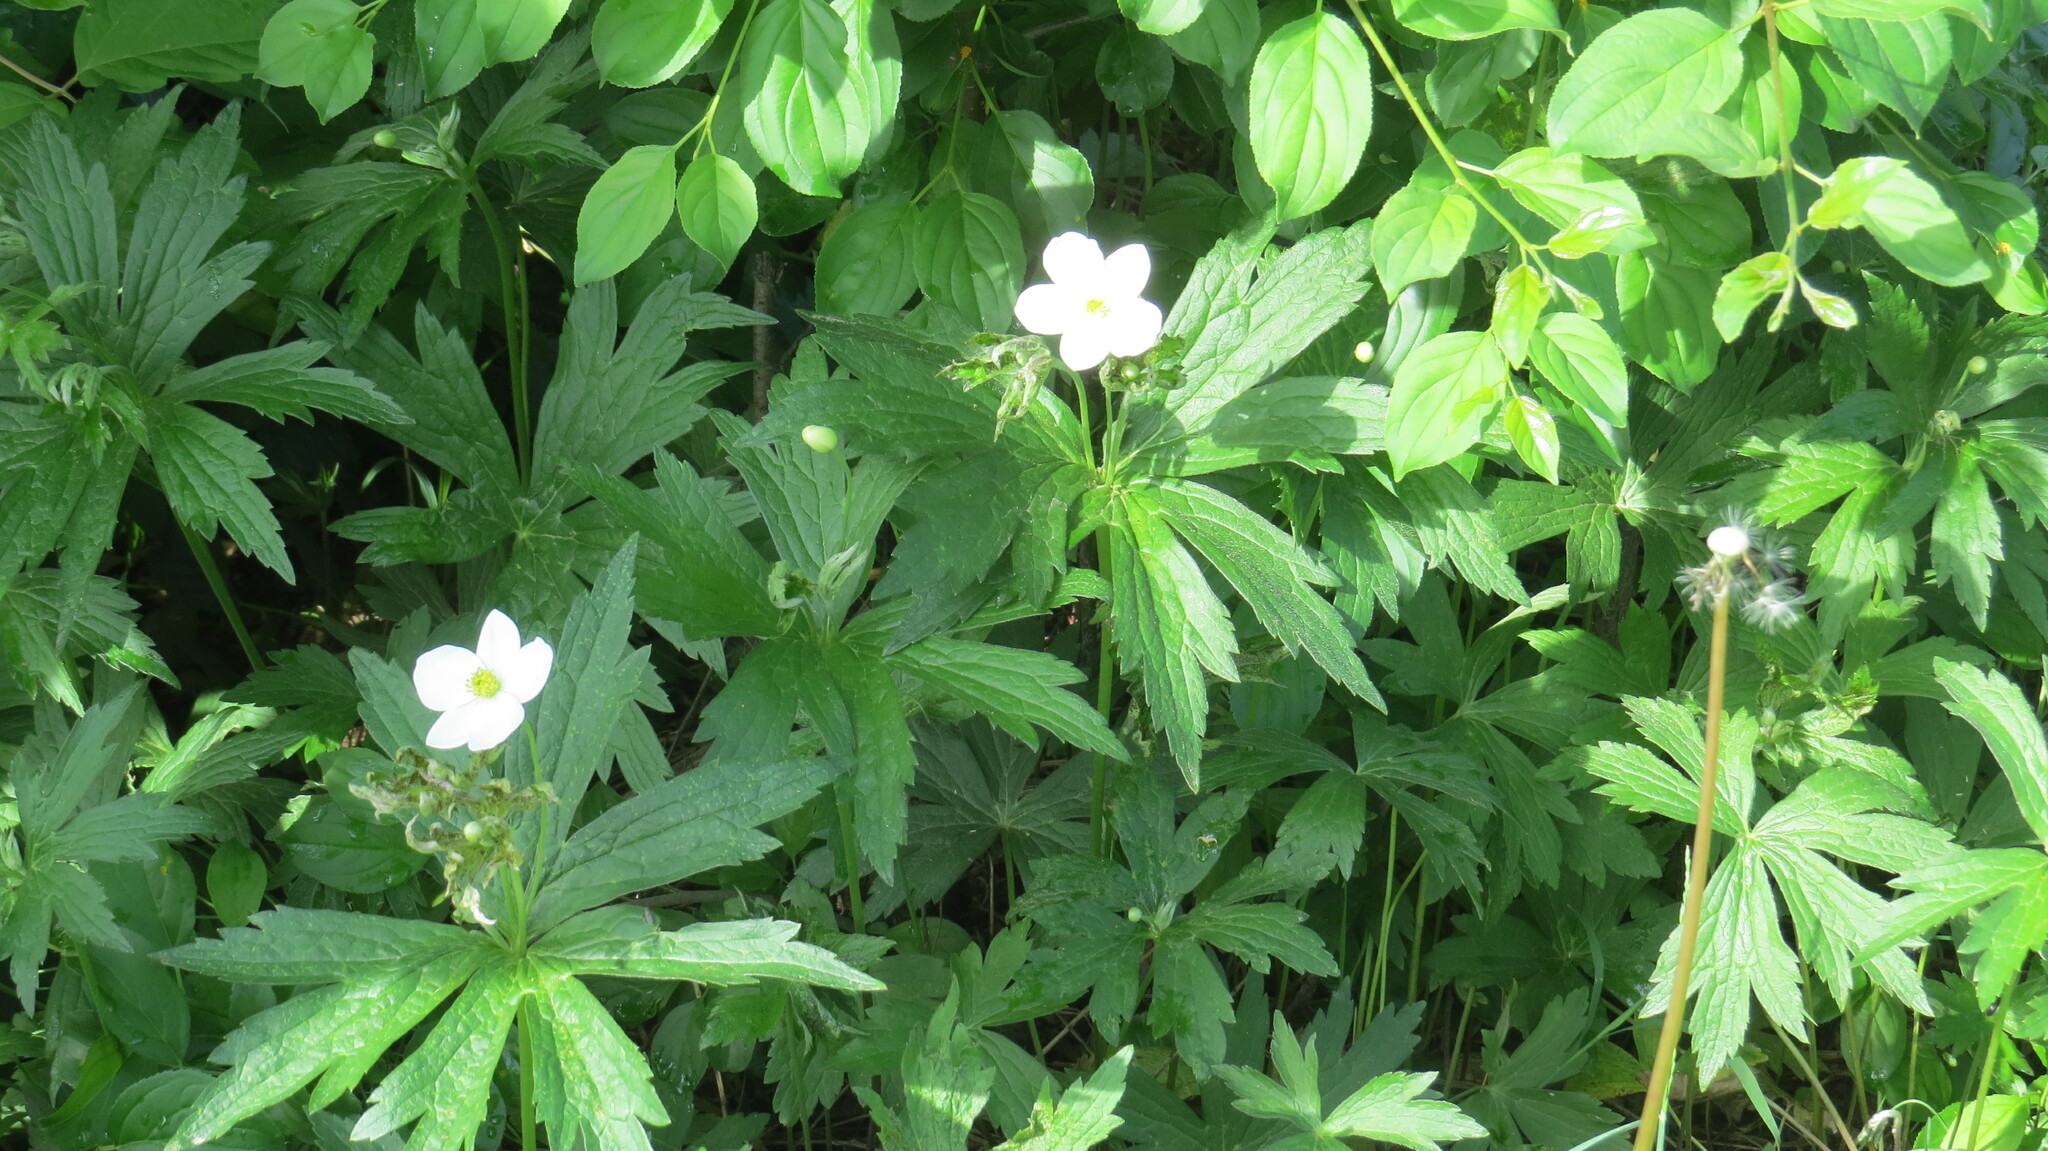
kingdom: Plantae
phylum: Tracheophyta
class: Magnoliopsida
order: Ranunculales
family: Ranunculaceae
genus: Anemonastrum
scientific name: Anemonastrum canadense
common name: Canada anemone
